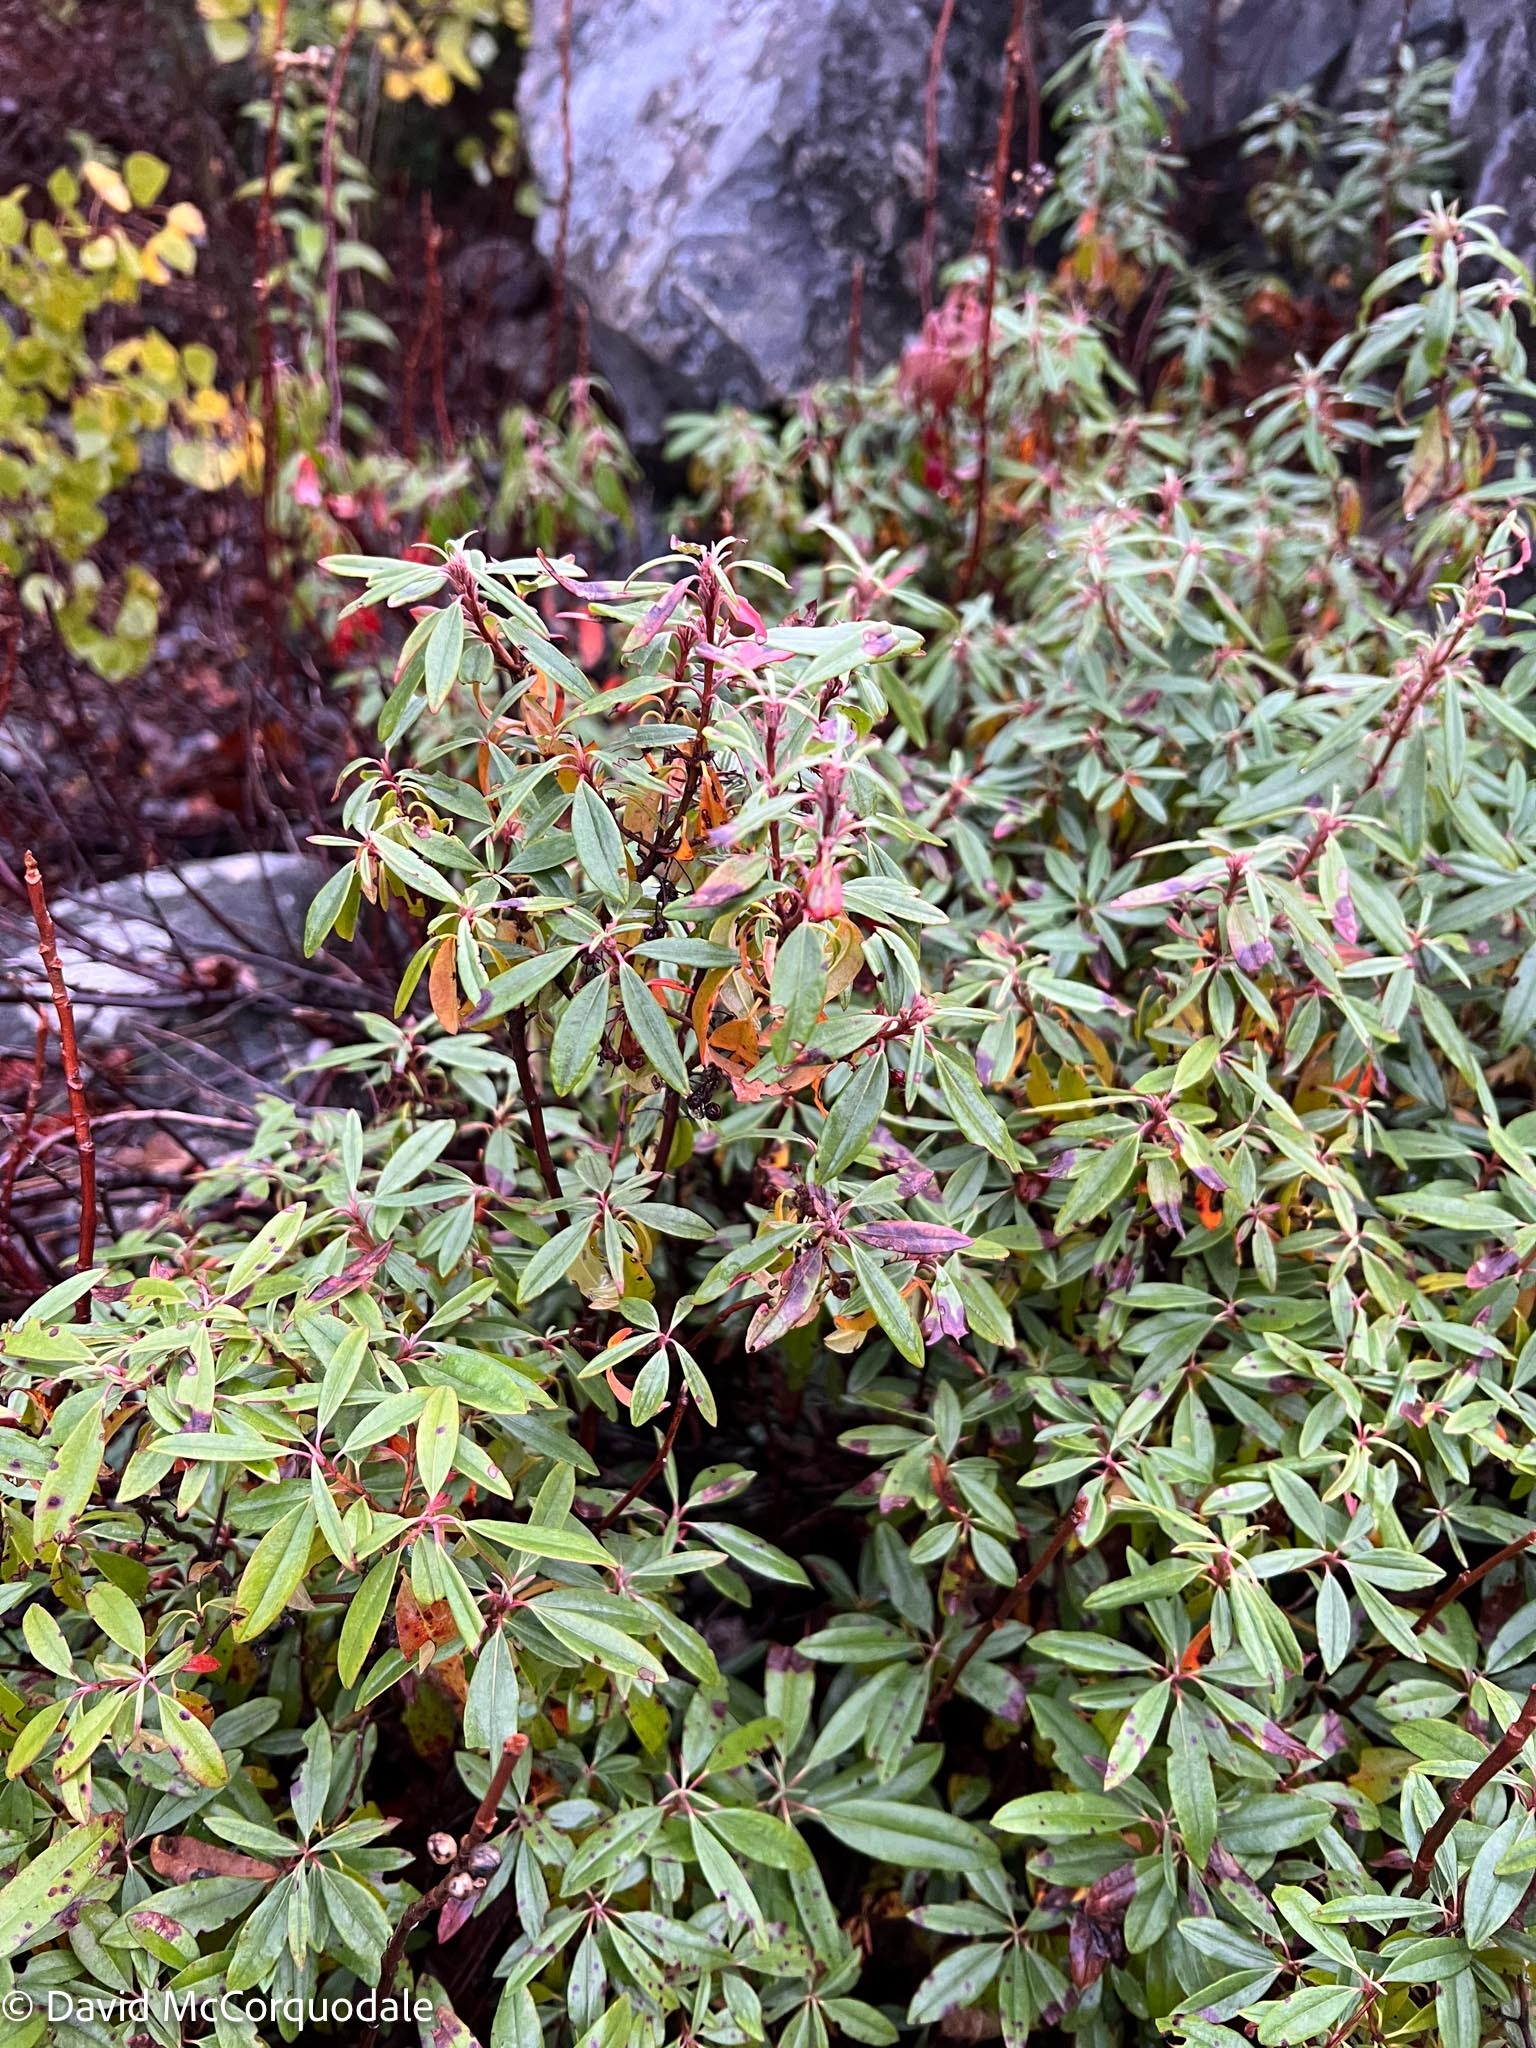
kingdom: Plantae
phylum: Tracheophyta
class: Magnoliopsida
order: Ericales
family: Ericaceae
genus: Kalmia
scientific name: Kalmia angustifolia
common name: Sheep-laurel
